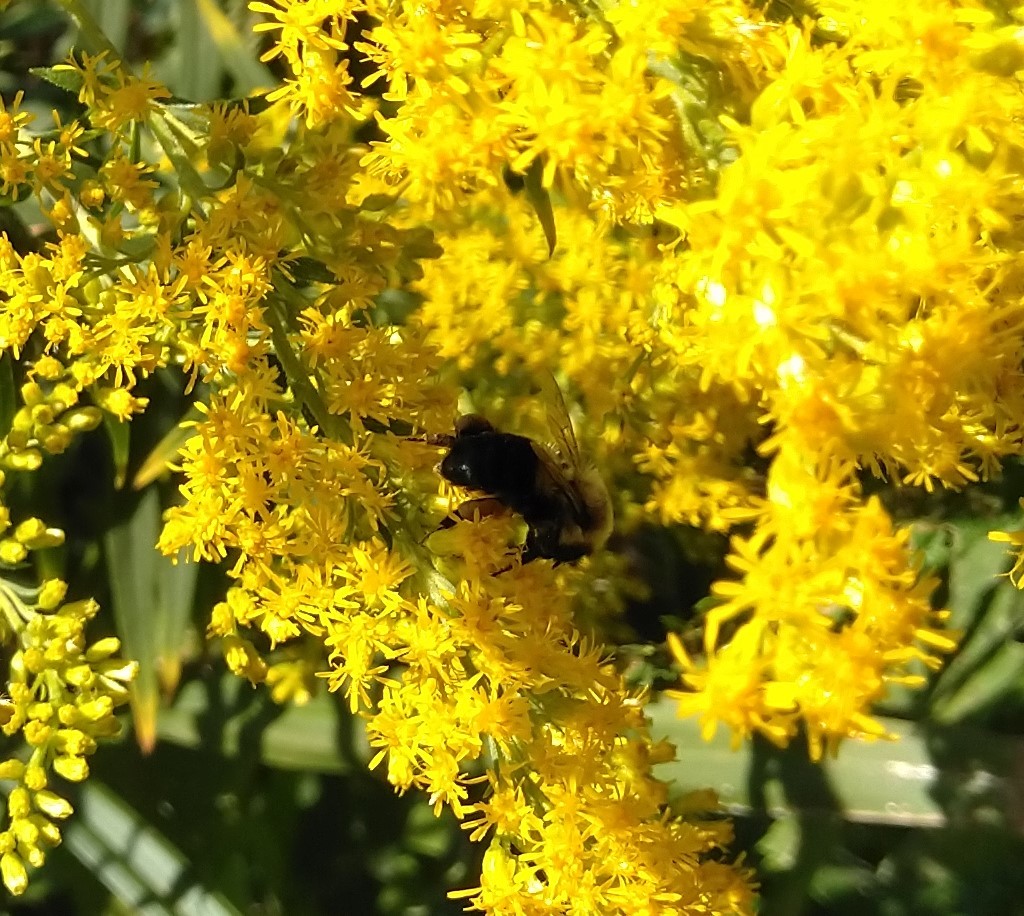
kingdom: Animalia
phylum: Arthropoda
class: Insecta
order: Hymenoptera
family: Apidae
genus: Bombus
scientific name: Bombus impatiens
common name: Common eastern bumble bee
